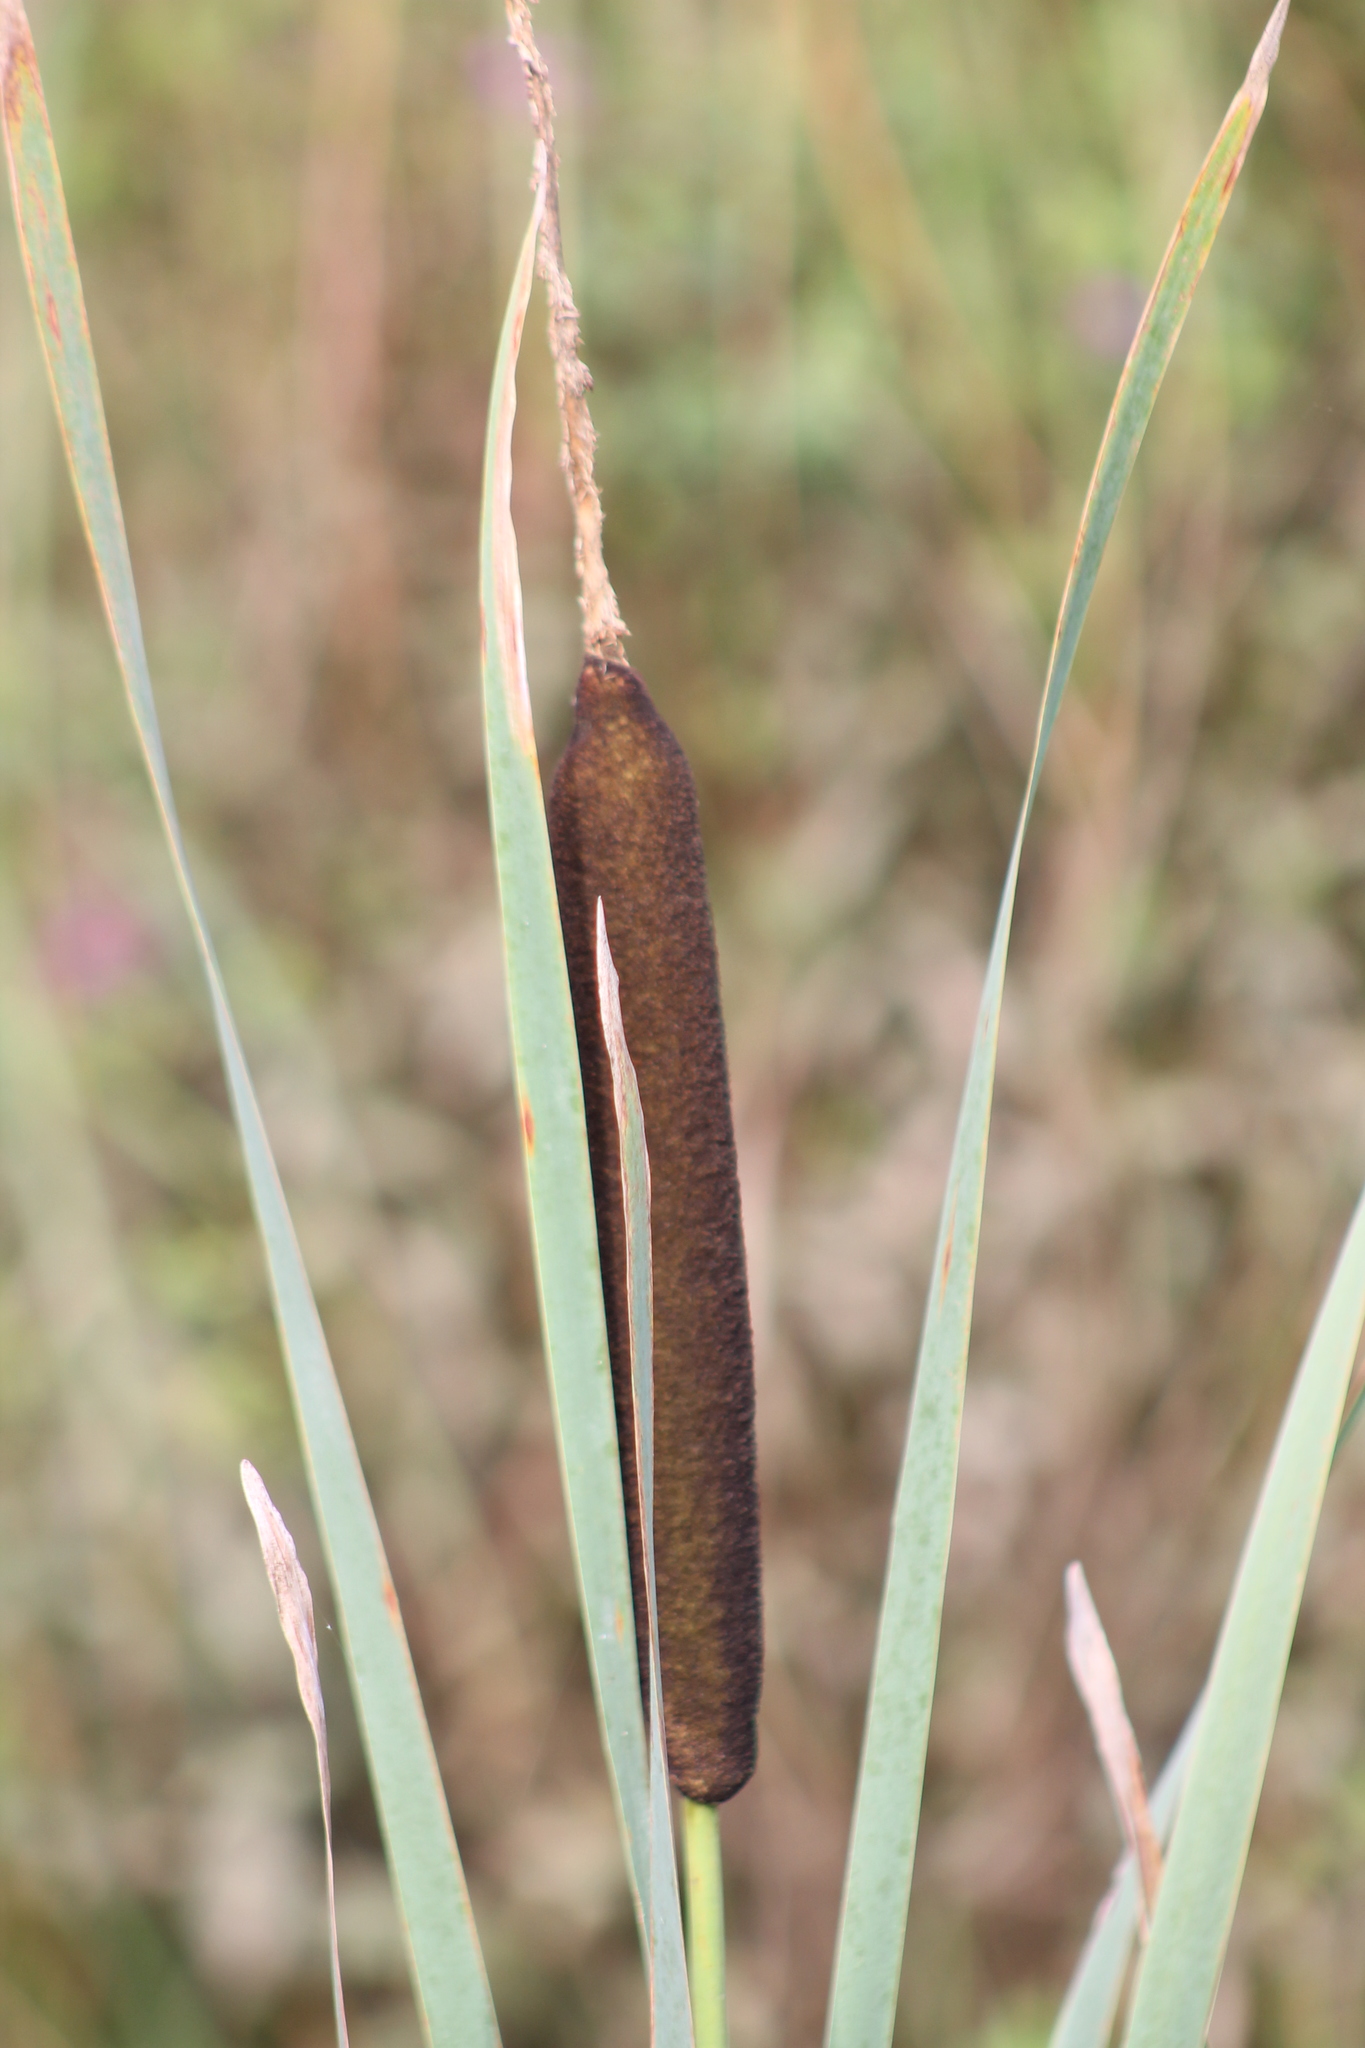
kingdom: Plantae
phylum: Tracheophyta
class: Liliopsida
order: Poales
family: Typhaceae
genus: Typha
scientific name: Typha latifolia
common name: Broadleaf cattail
